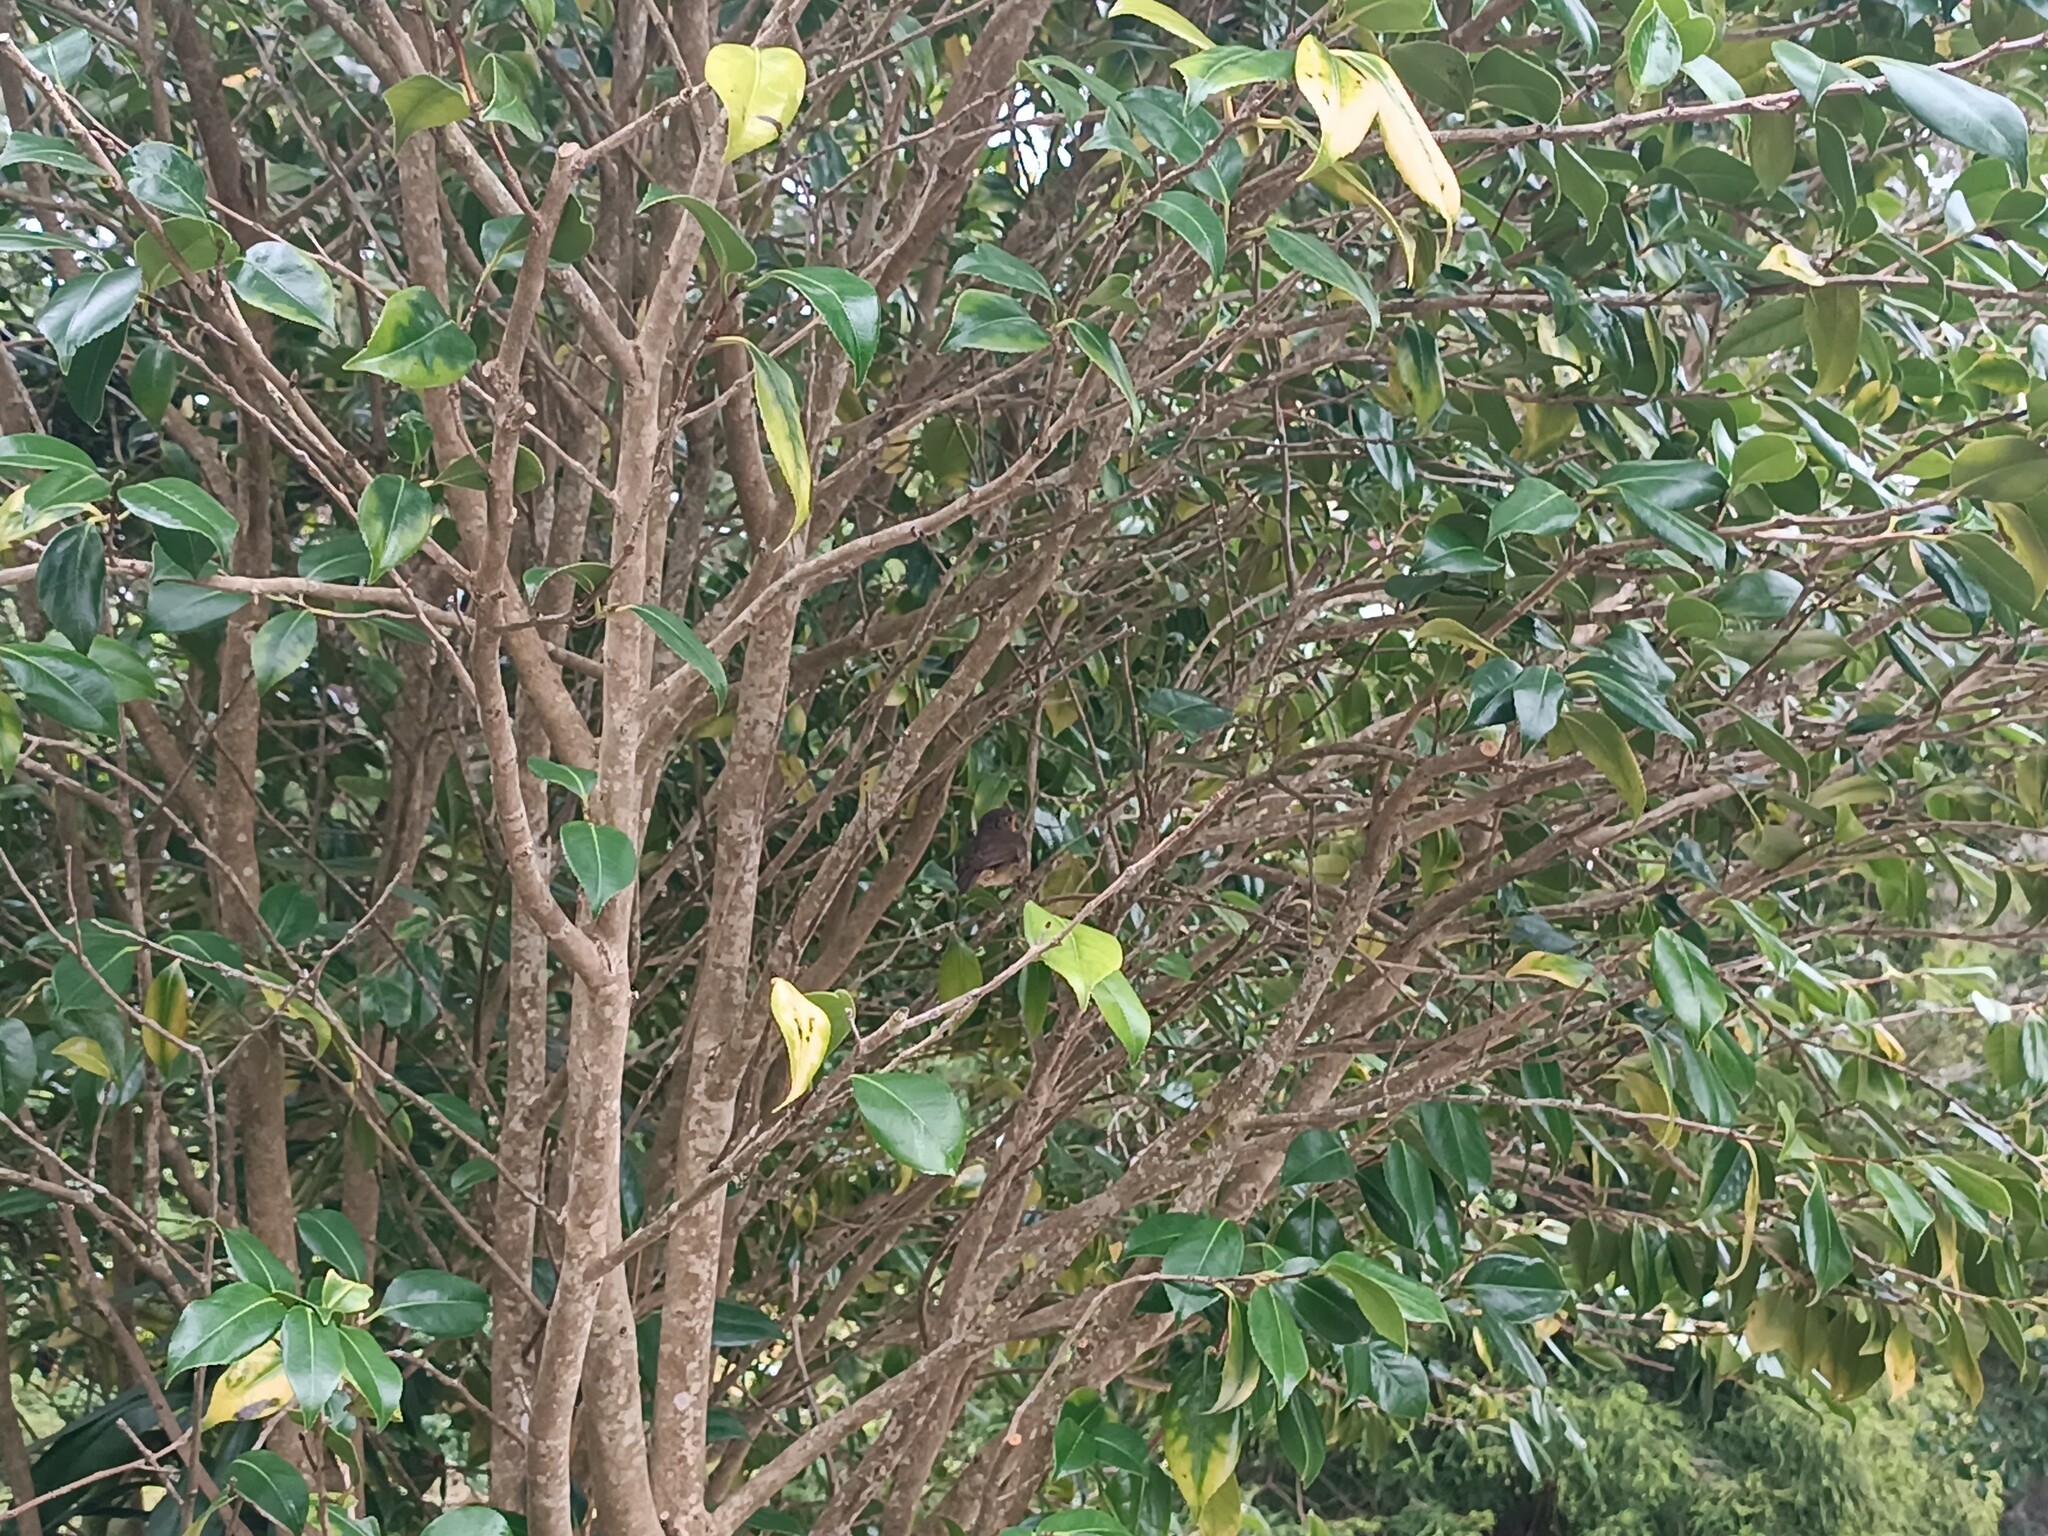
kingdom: Animalia
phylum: Chordata
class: Aves
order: Passeriformes
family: Muscicapidae
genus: Erithacus
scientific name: Erithacus rubecula
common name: European robin
